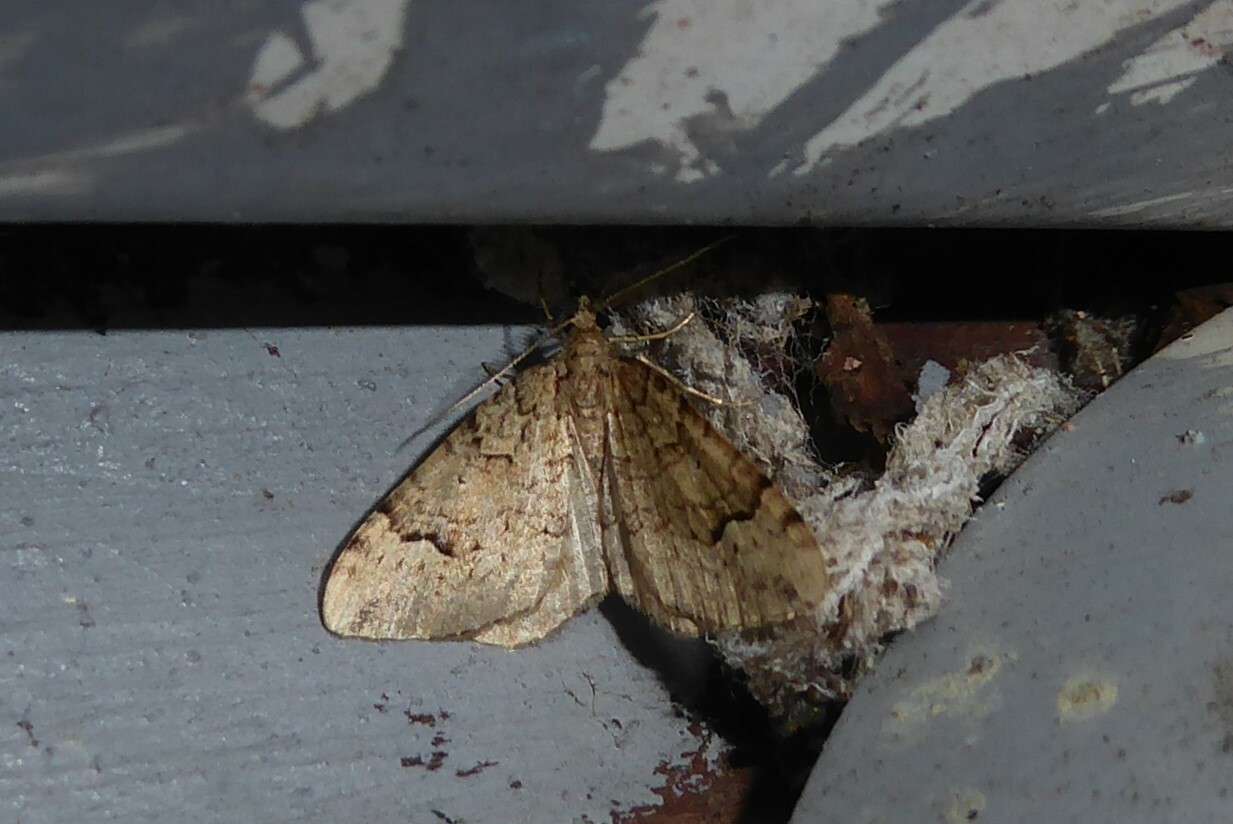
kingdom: Animalia
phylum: Arthropoda
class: Insecta
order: Lepidoptera
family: Geometridae
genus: Epyaxa
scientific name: Epyaxa rosearia
